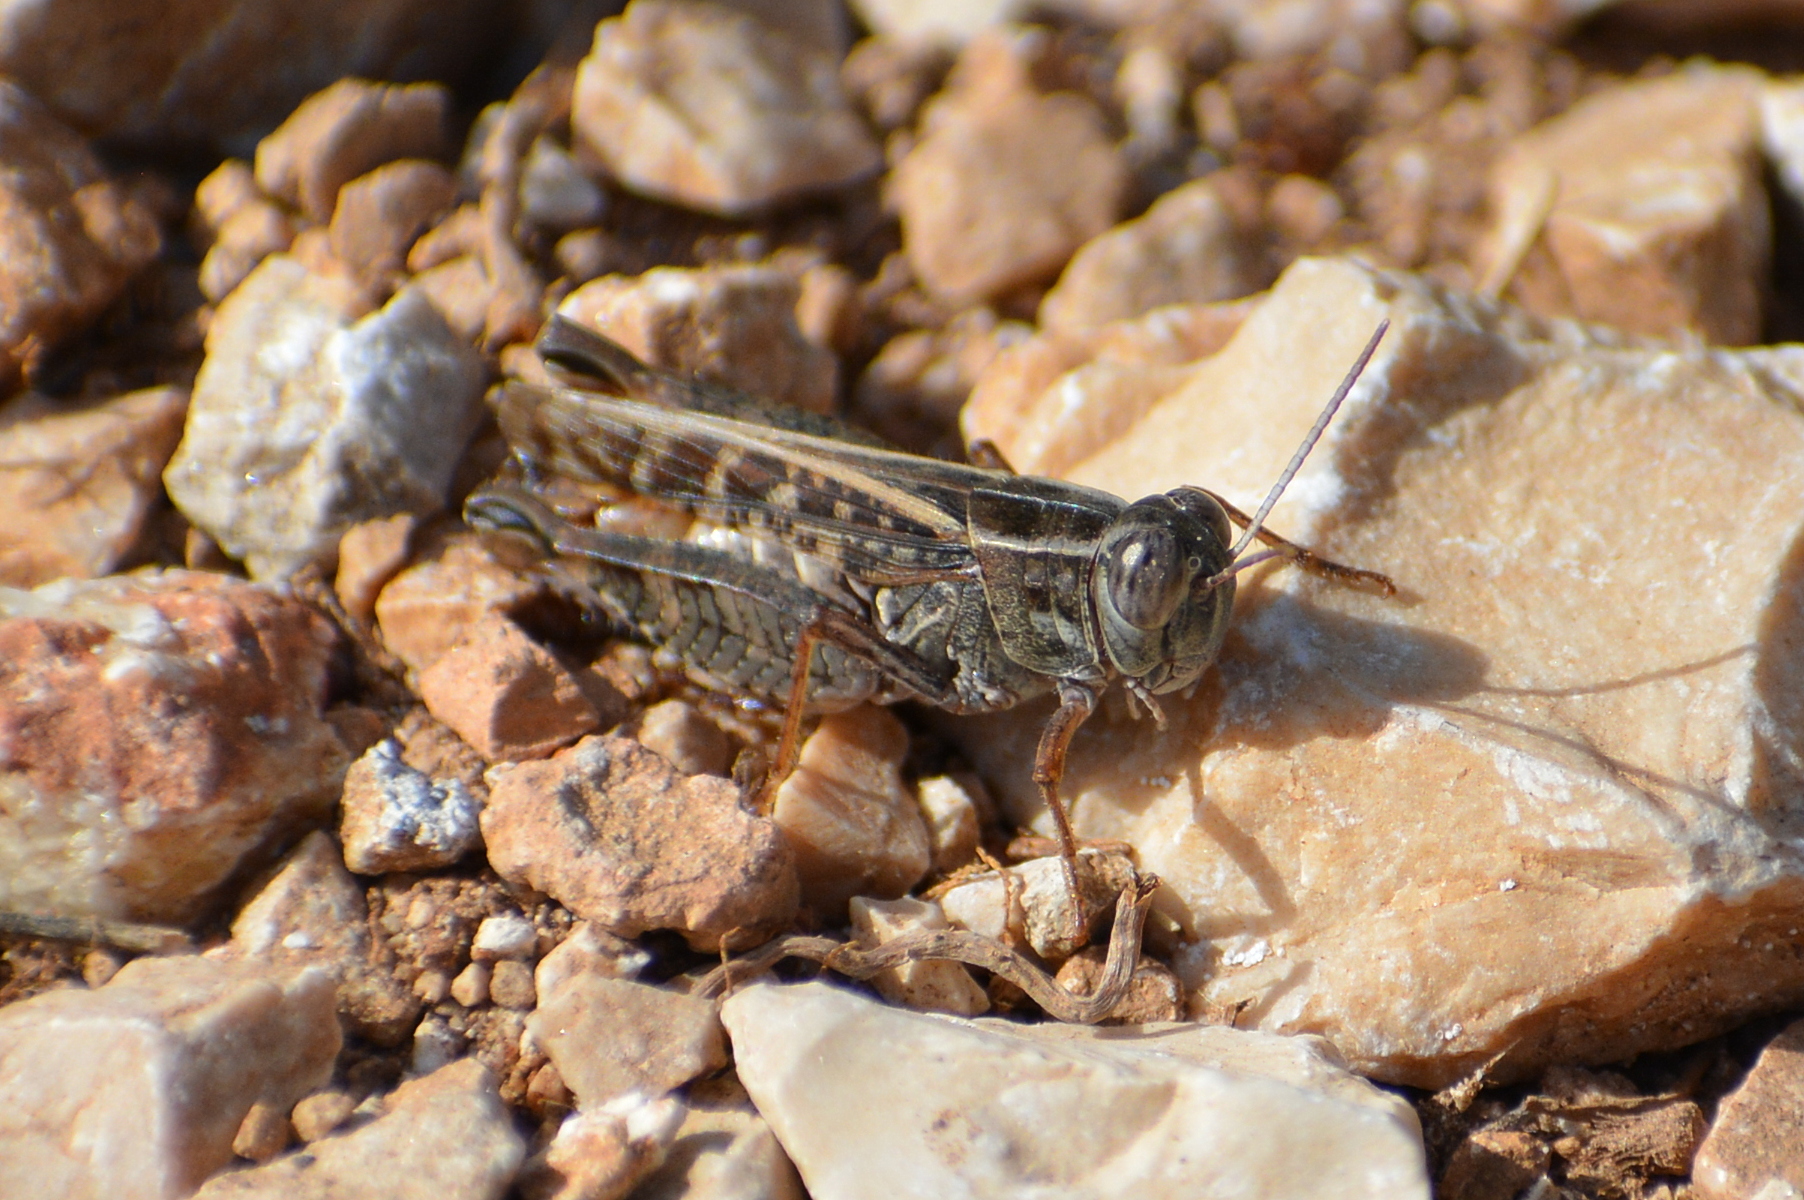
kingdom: Animalia
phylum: Arthropoda
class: Insecta
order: Orthoptera
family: Acrididae
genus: Calliptamus
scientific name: Calliptamus italicus
